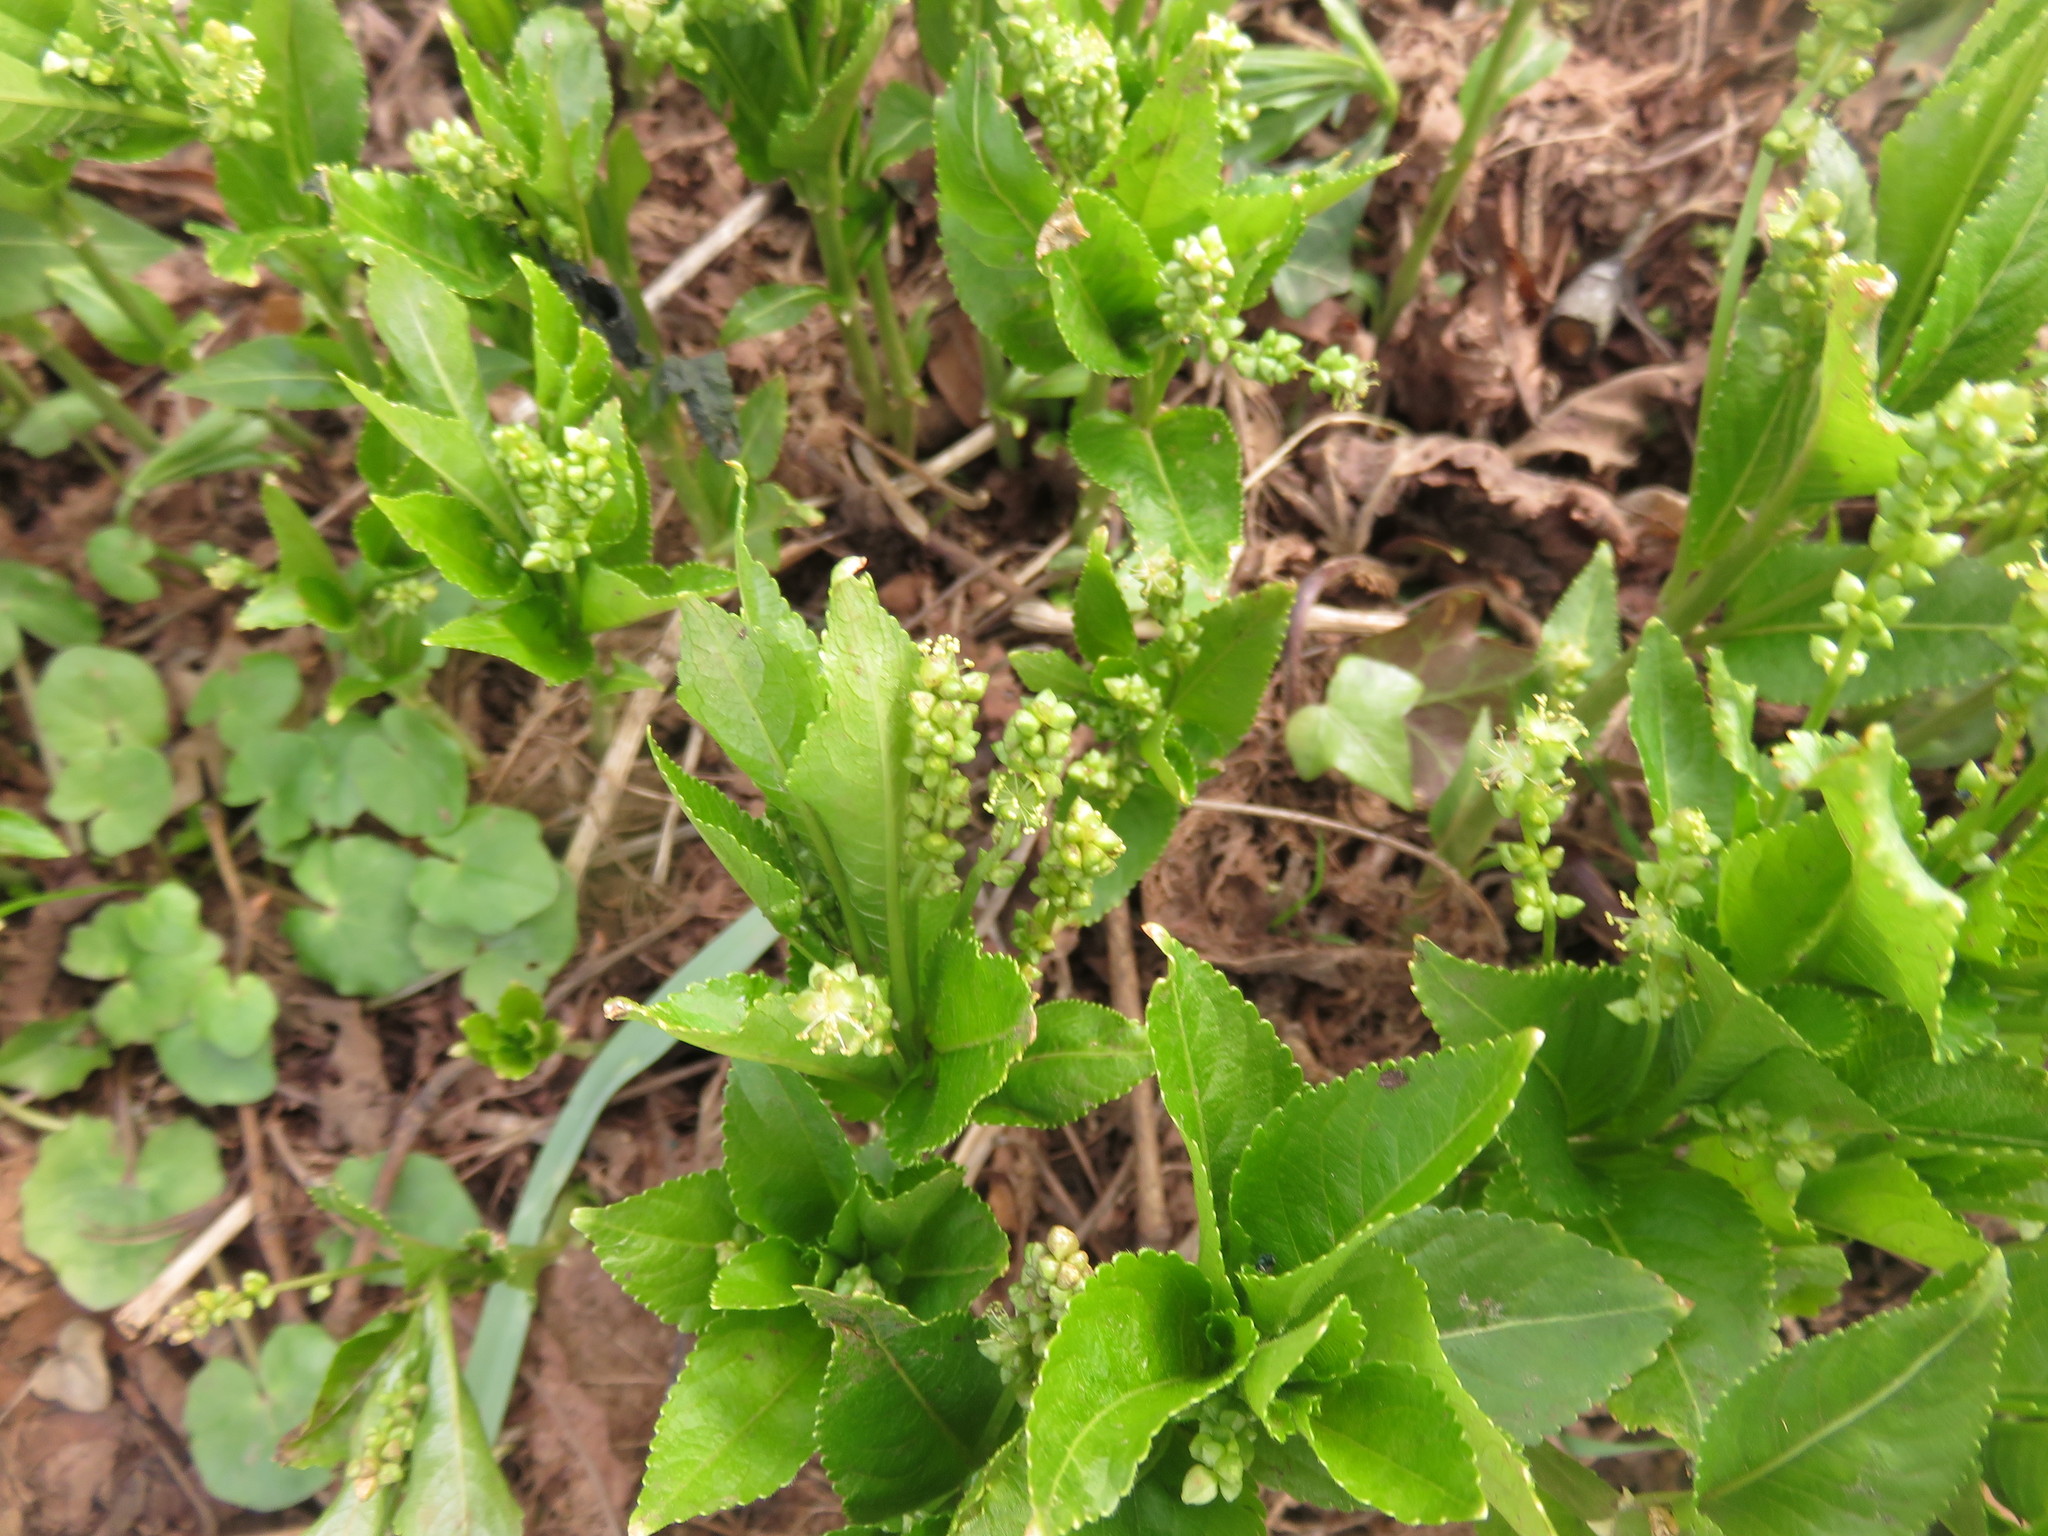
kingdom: Plantae
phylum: Tracheophyta
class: Magnoliopsida
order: Malpighiales
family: Euphorbiaceae
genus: Mercurialis
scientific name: Mercurialis perennis
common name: Dog mercury
